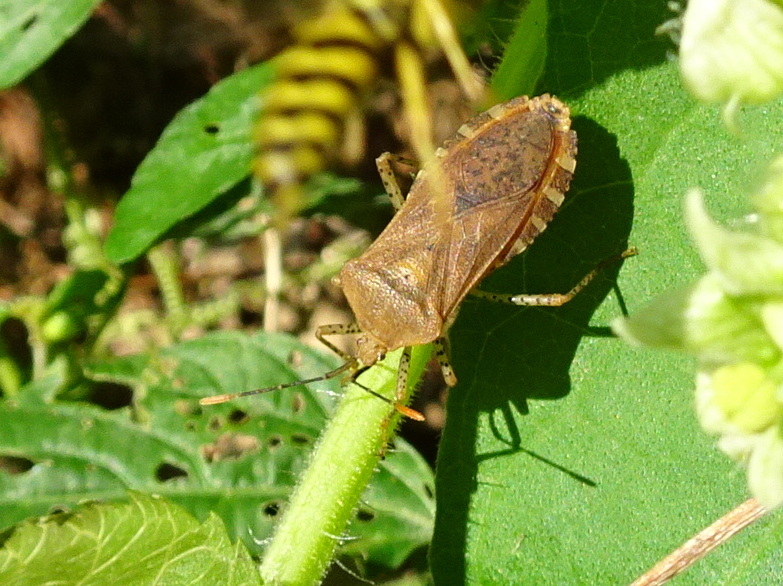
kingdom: Animalia
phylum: Arthropoda
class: Insecta
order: Hemiptera
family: Coreidae
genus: Anasa
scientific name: Anasa repetita
